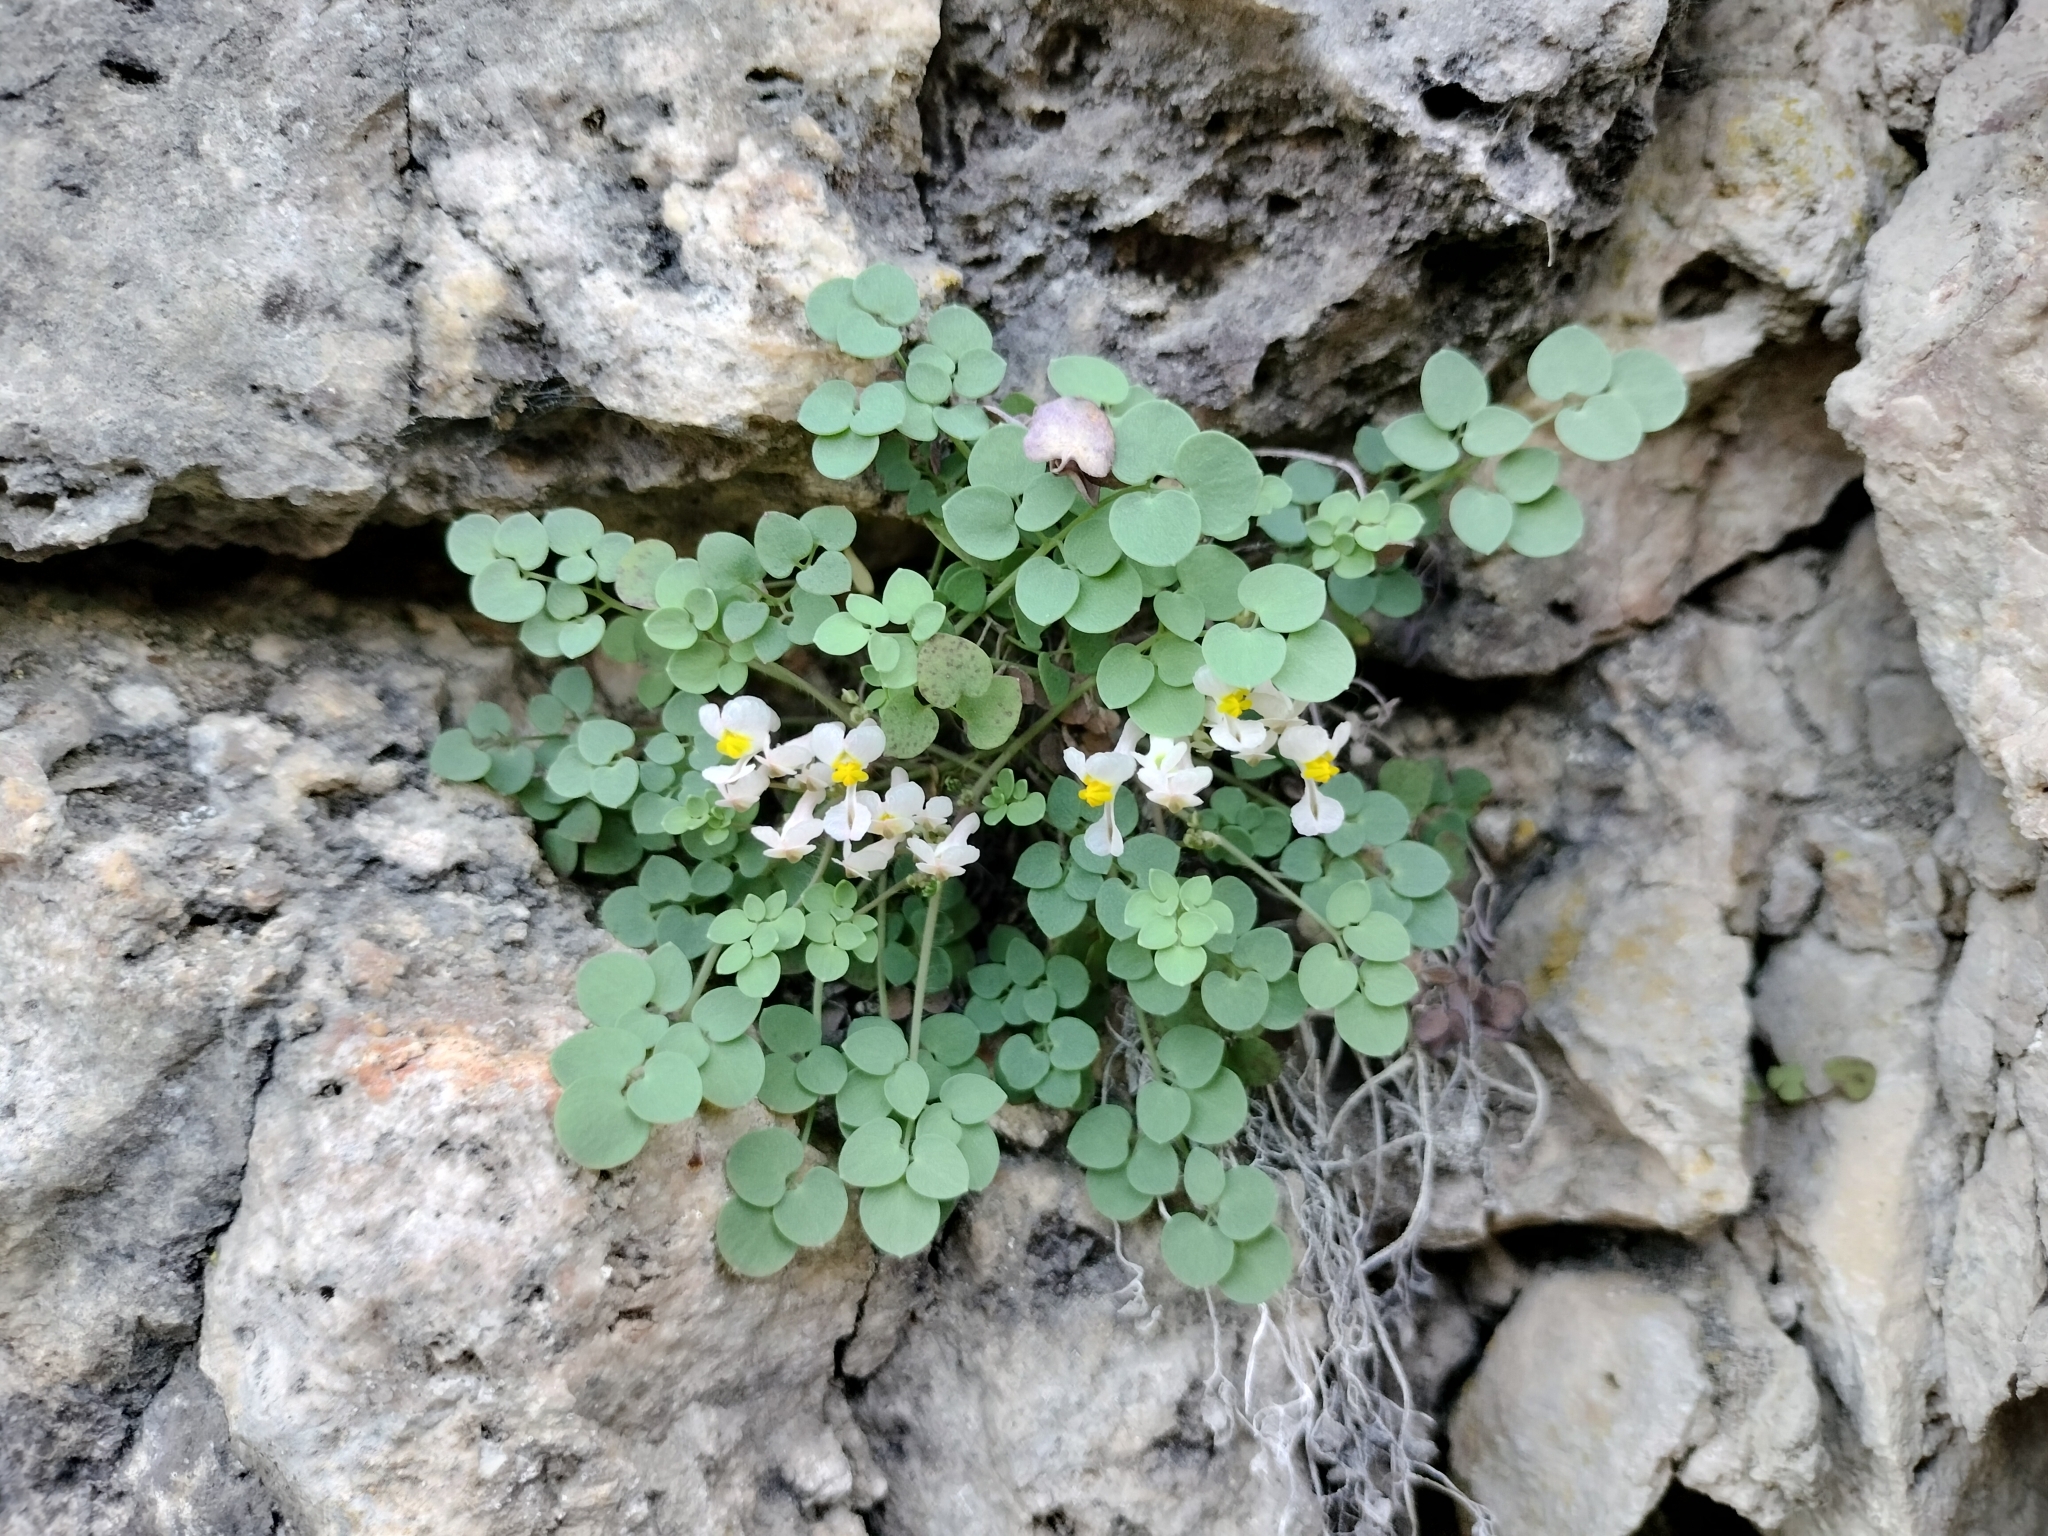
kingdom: Plantae
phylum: Tracheophyta
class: Magnoliopsida
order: Ranunculales
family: Papaveraceae
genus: Sarcocapnos
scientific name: Sarcocapnos enneaphylla
